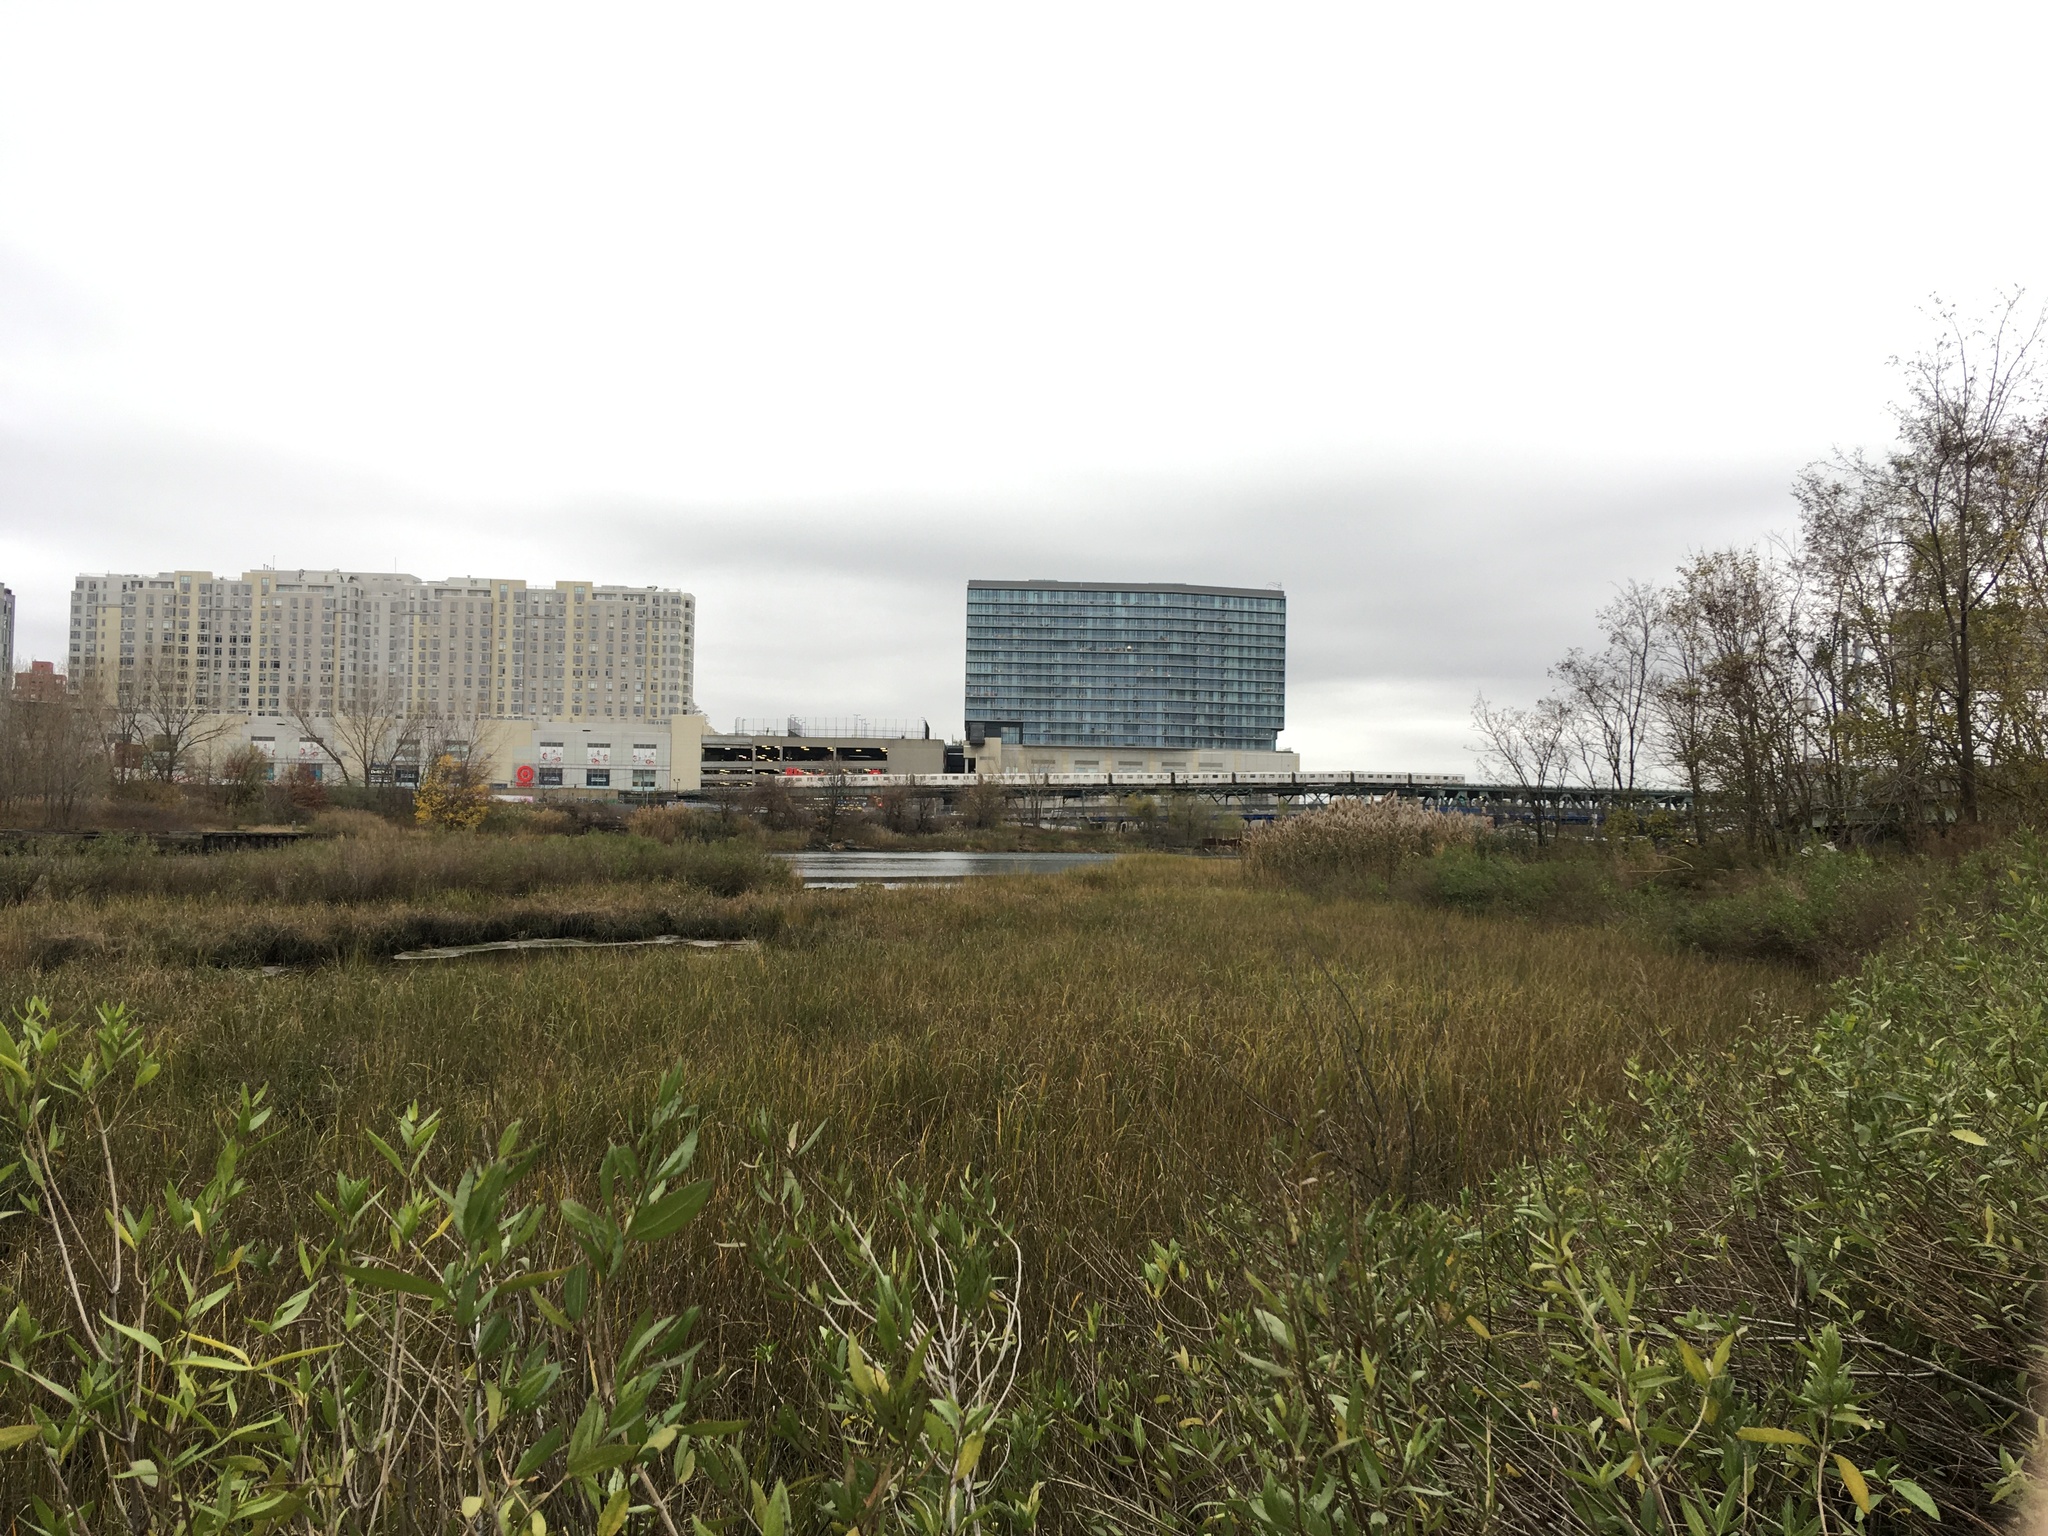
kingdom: Plantae
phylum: Tracheophyta
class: Liliopsida
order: Poales
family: Poaceae
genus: Sporobolus
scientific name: Sporobolus alterniflorus
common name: Atlantic cordgrass
